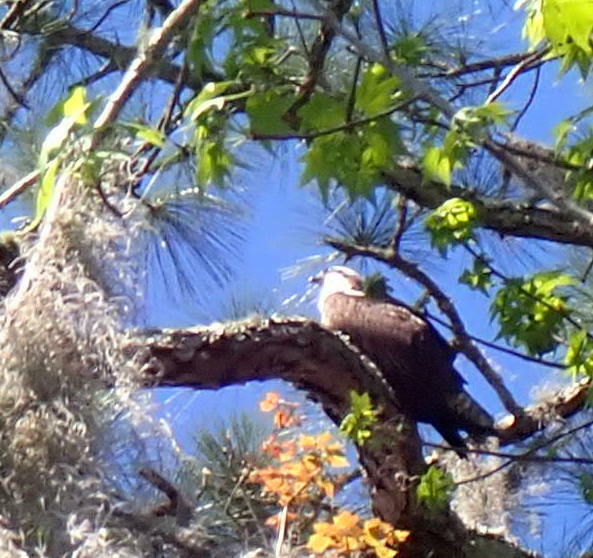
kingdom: Animalia
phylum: Chordata
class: Aves
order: Accipitriformes
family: Pandionidae
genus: Pandion
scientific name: Pandion haliaetus
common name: Osprey
